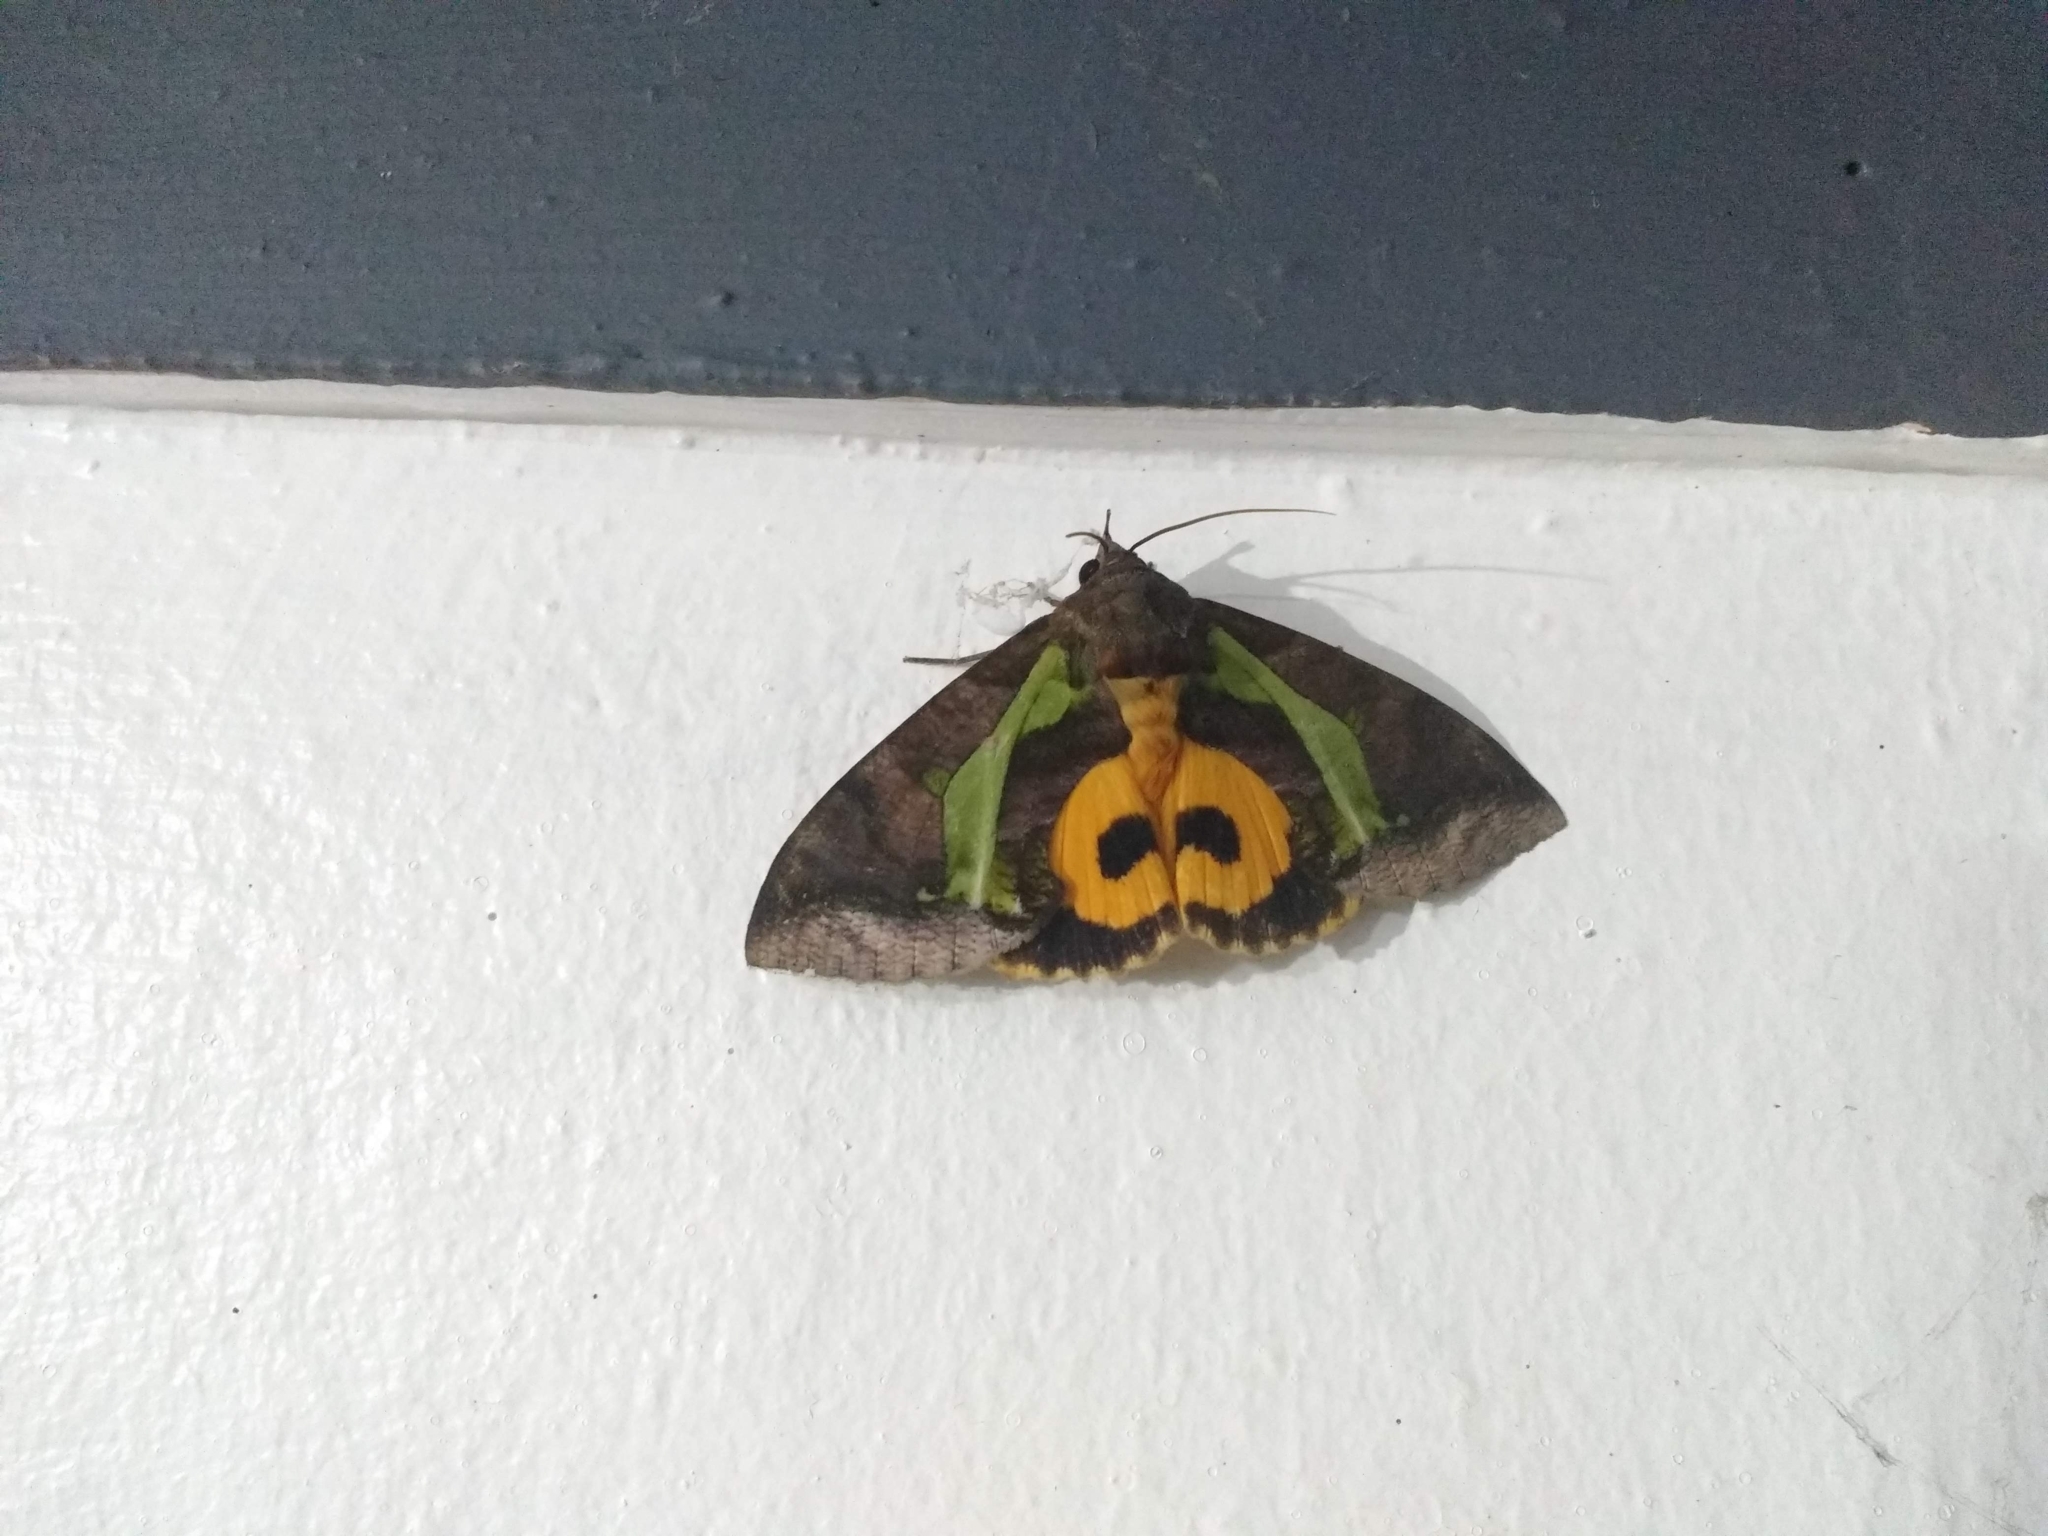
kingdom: Animalia
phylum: Arthropoda
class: Insecta
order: Lepidoptera
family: Erebidae
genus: Eudocima
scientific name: Eudocima homaena
